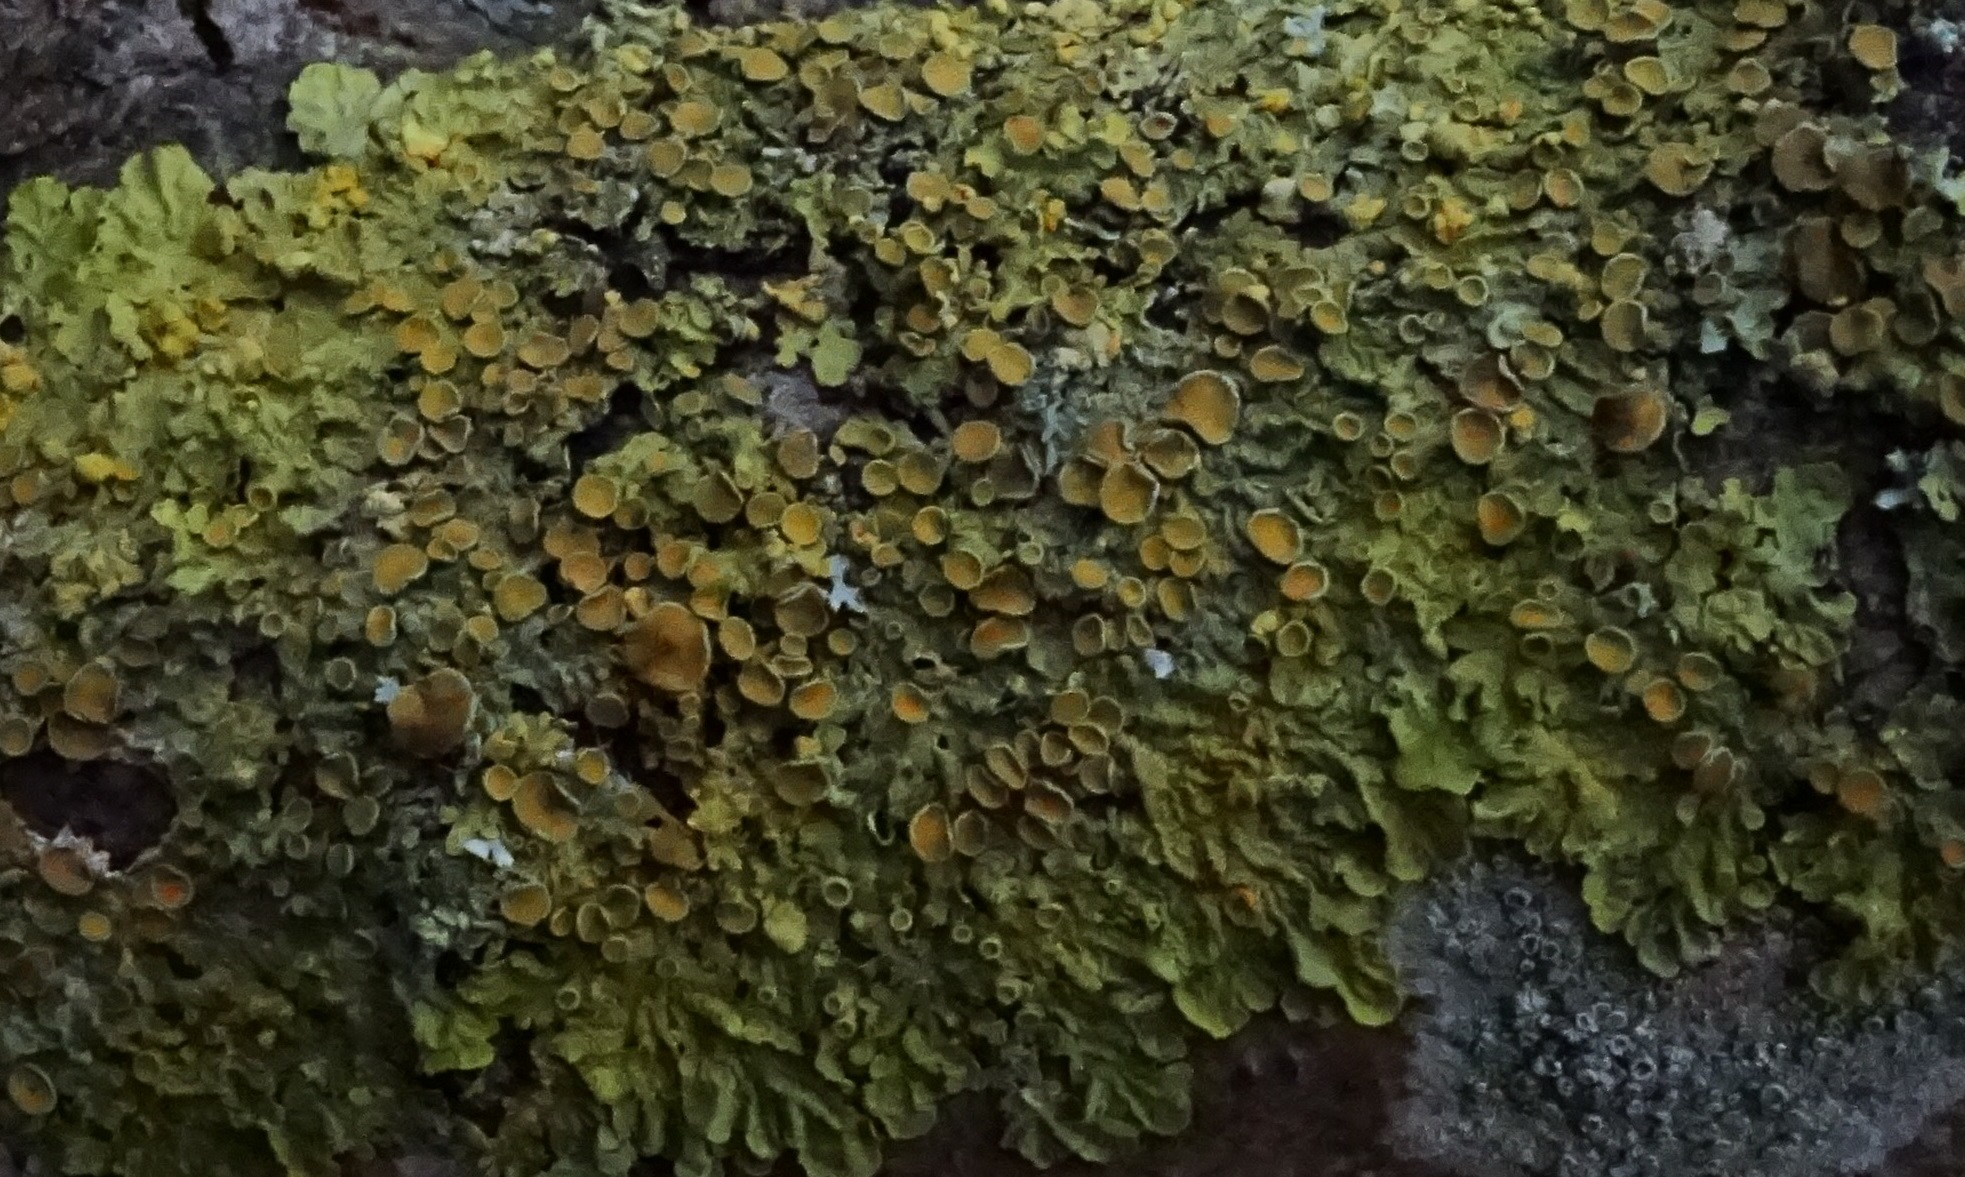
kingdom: Fungi
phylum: Ascomycota
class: Lecanoromycetes
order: Teloschistales
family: Teloschistaceae
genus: Xanthoria
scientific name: Xanthoria parietina
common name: Common orange lichen
